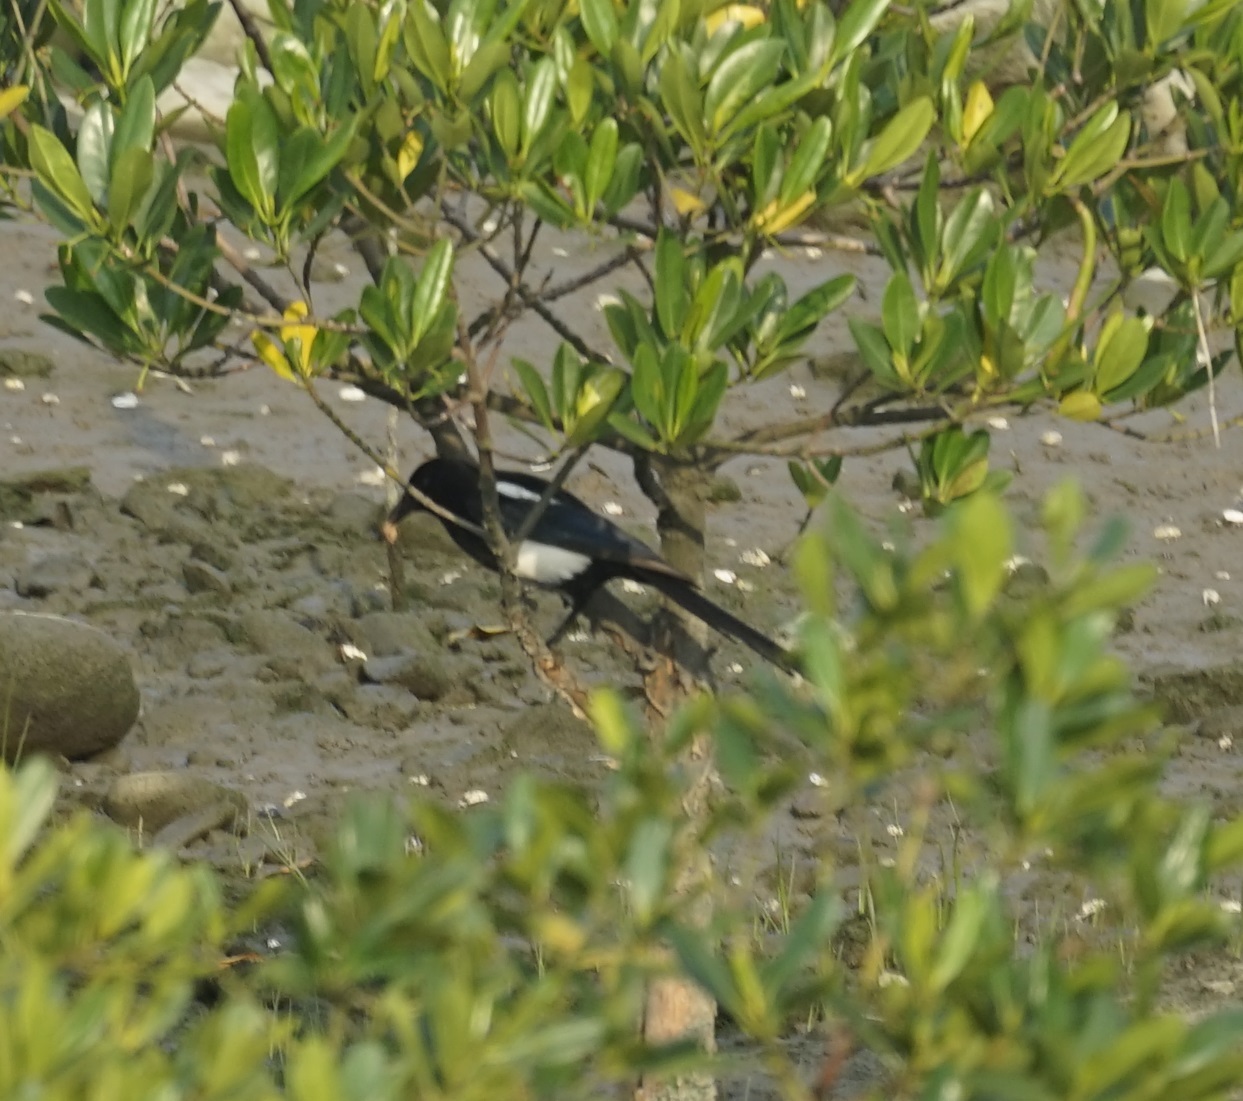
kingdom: Animalia
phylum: Chordata
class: Aves
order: Passeriformes
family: Corvidae
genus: Pica
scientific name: Pica serica
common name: Oriental magpie
